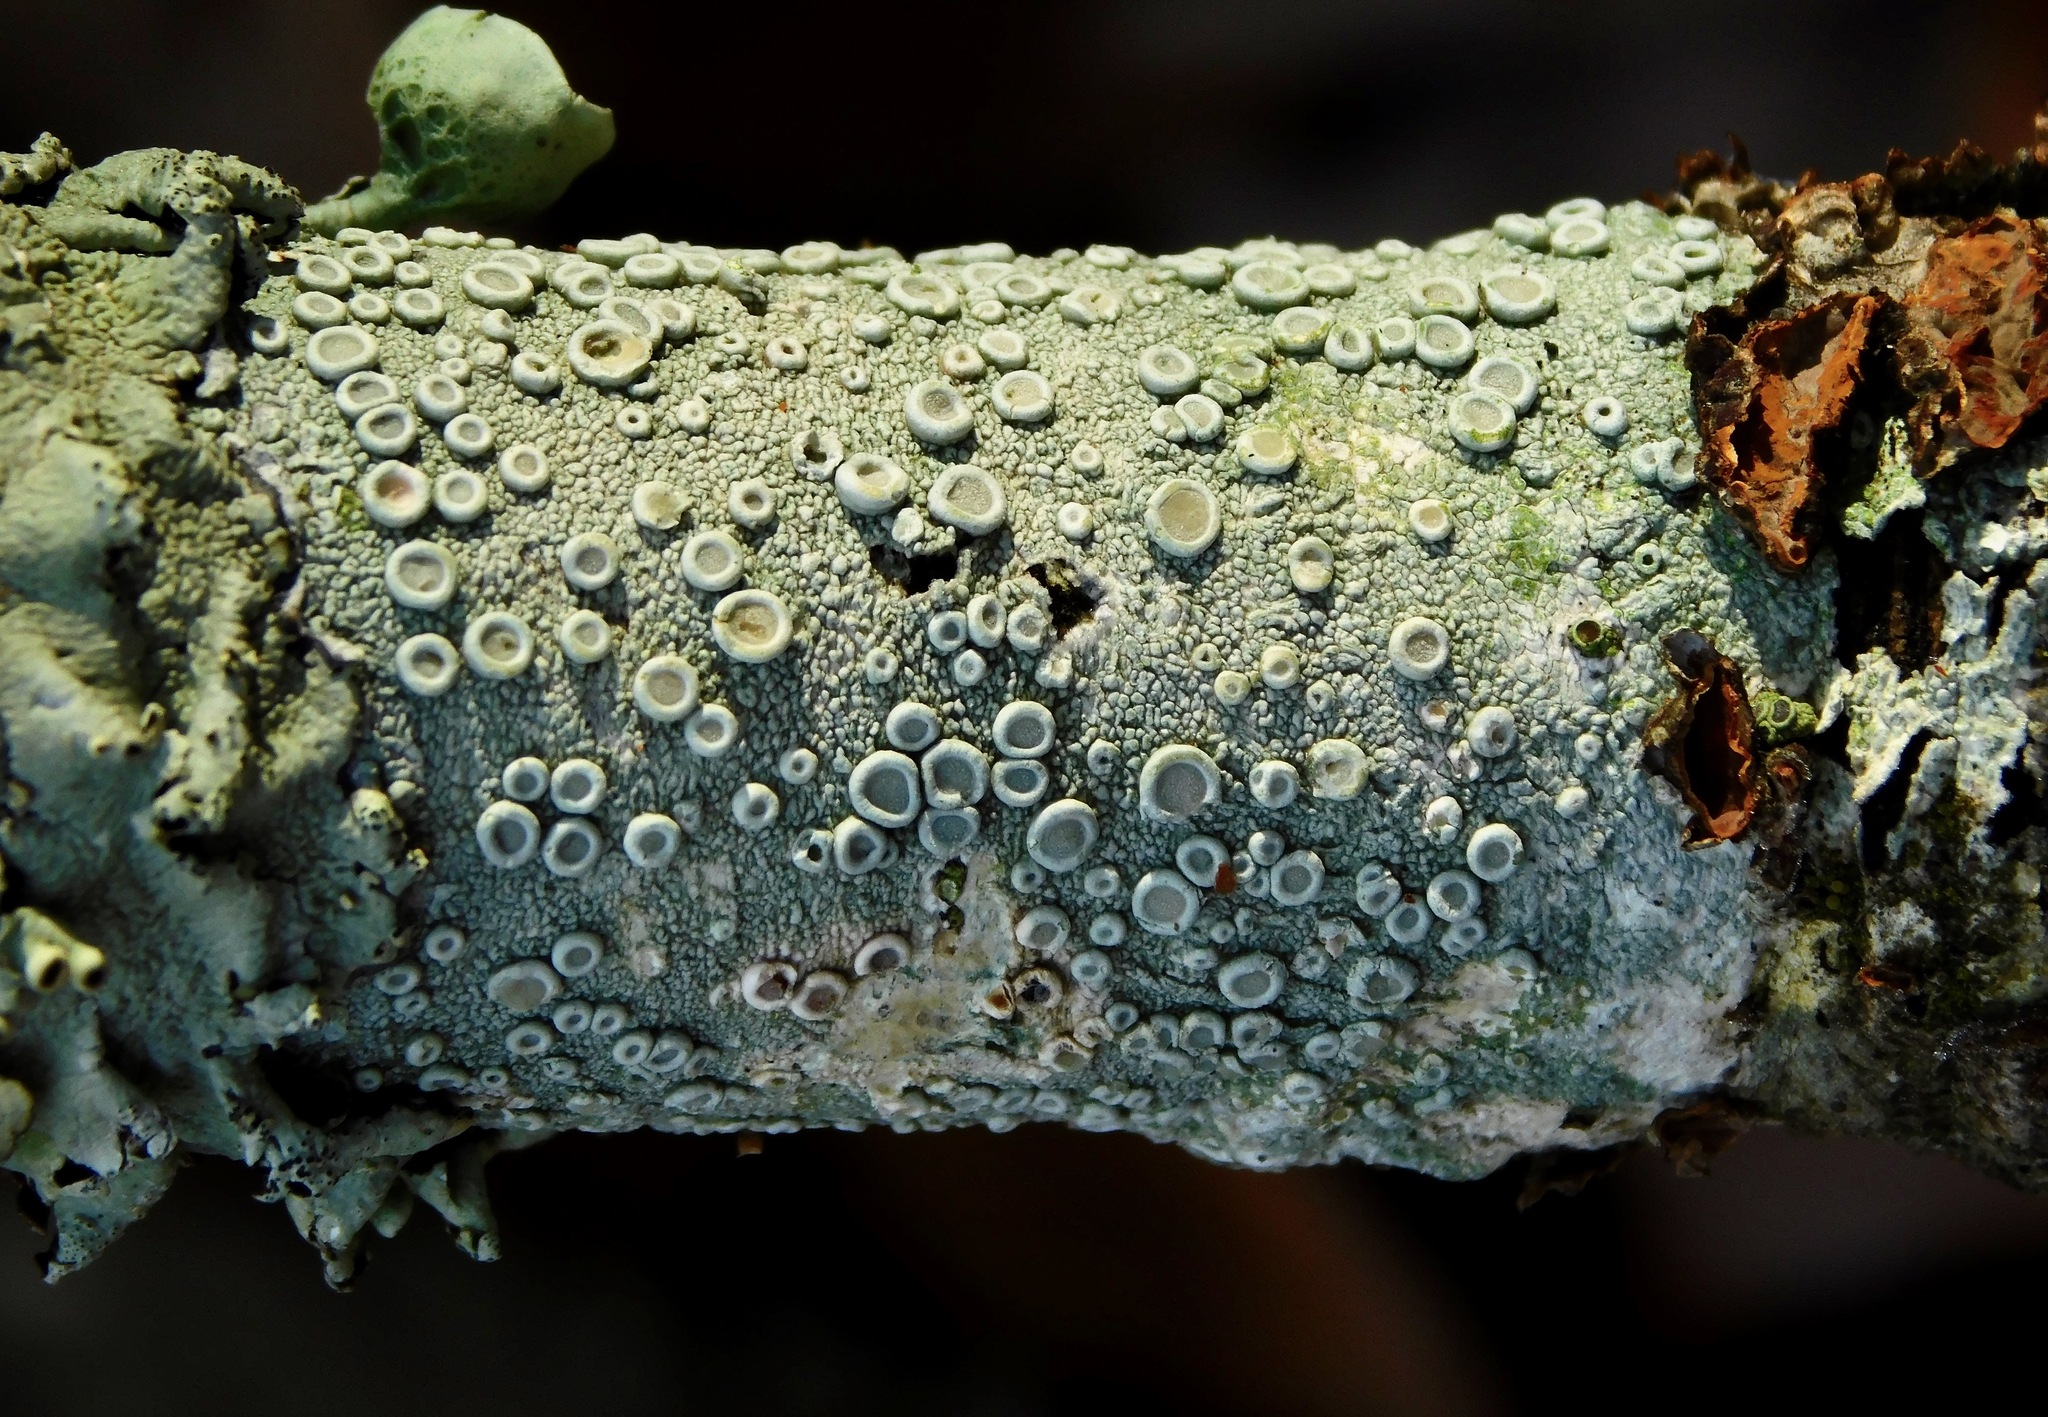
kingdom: Fungi
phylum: Ascomycota
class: Lecanoromycetes
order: Pertusariales
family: Ochrolechiaceae
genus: Ochrolechia
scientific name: Ochrolechia africana
